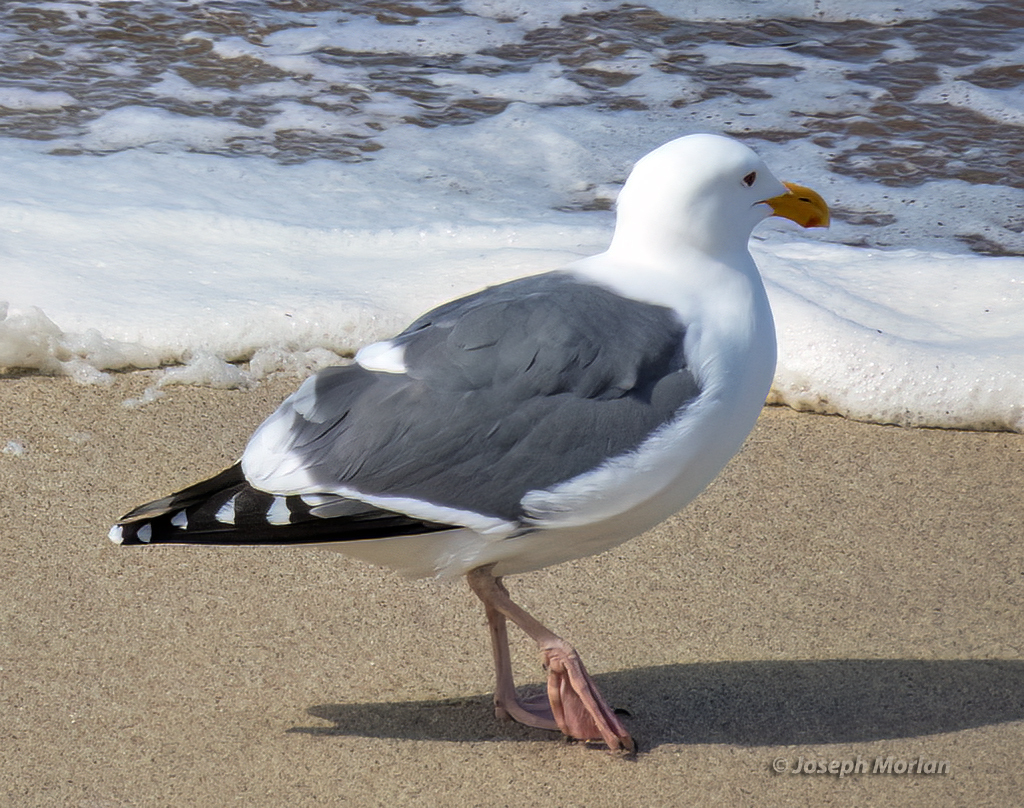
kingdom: Animalia
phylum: Chordata
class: Aves
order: Charadriiformes
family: Laridae
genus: Larus
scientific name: Larus occidentalis
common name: Western gull
